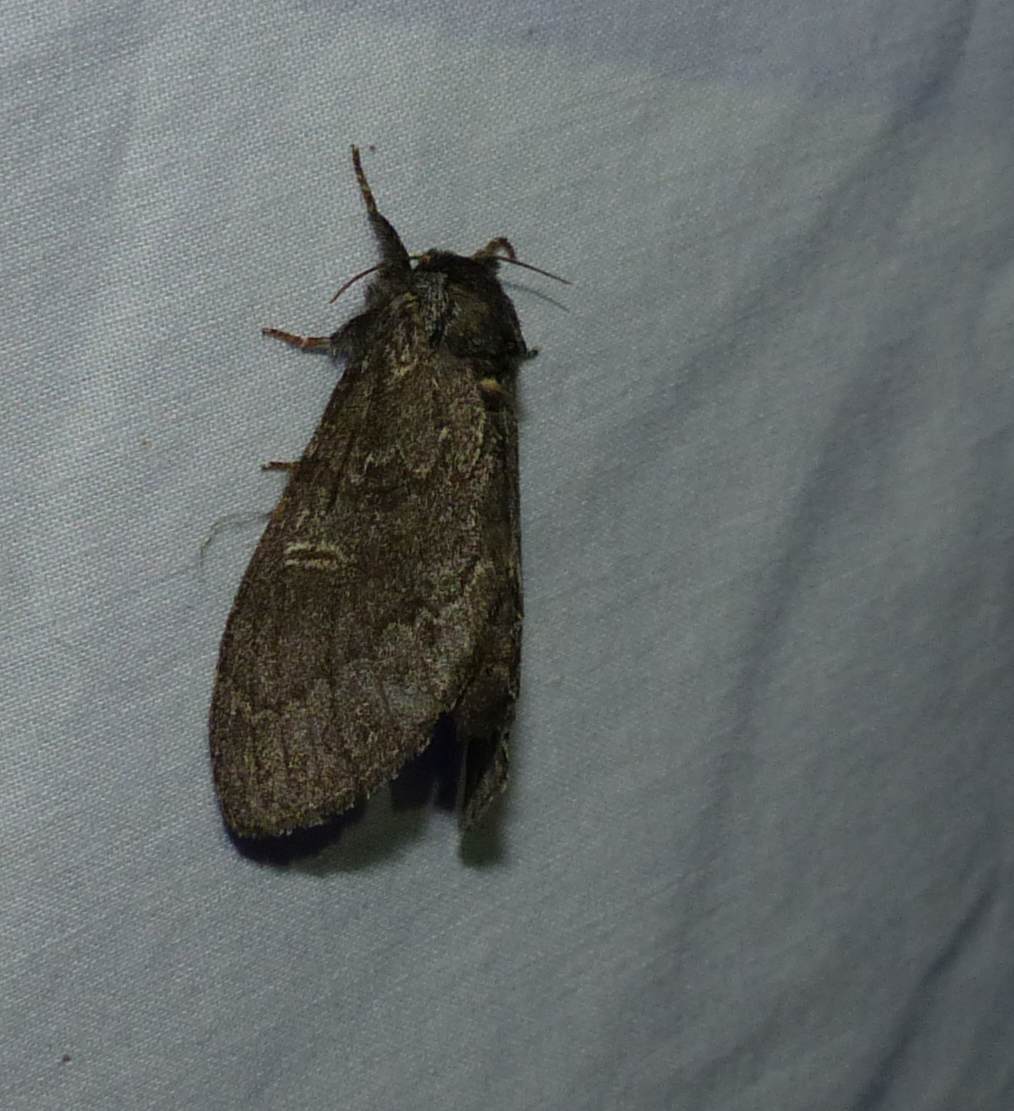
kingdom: Animalia
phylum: Arthropoda
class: Insecta
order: Lepidoptera
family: Notodontidae
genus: Notodonta
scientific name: Notodonta torva
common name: Large dark prominent
